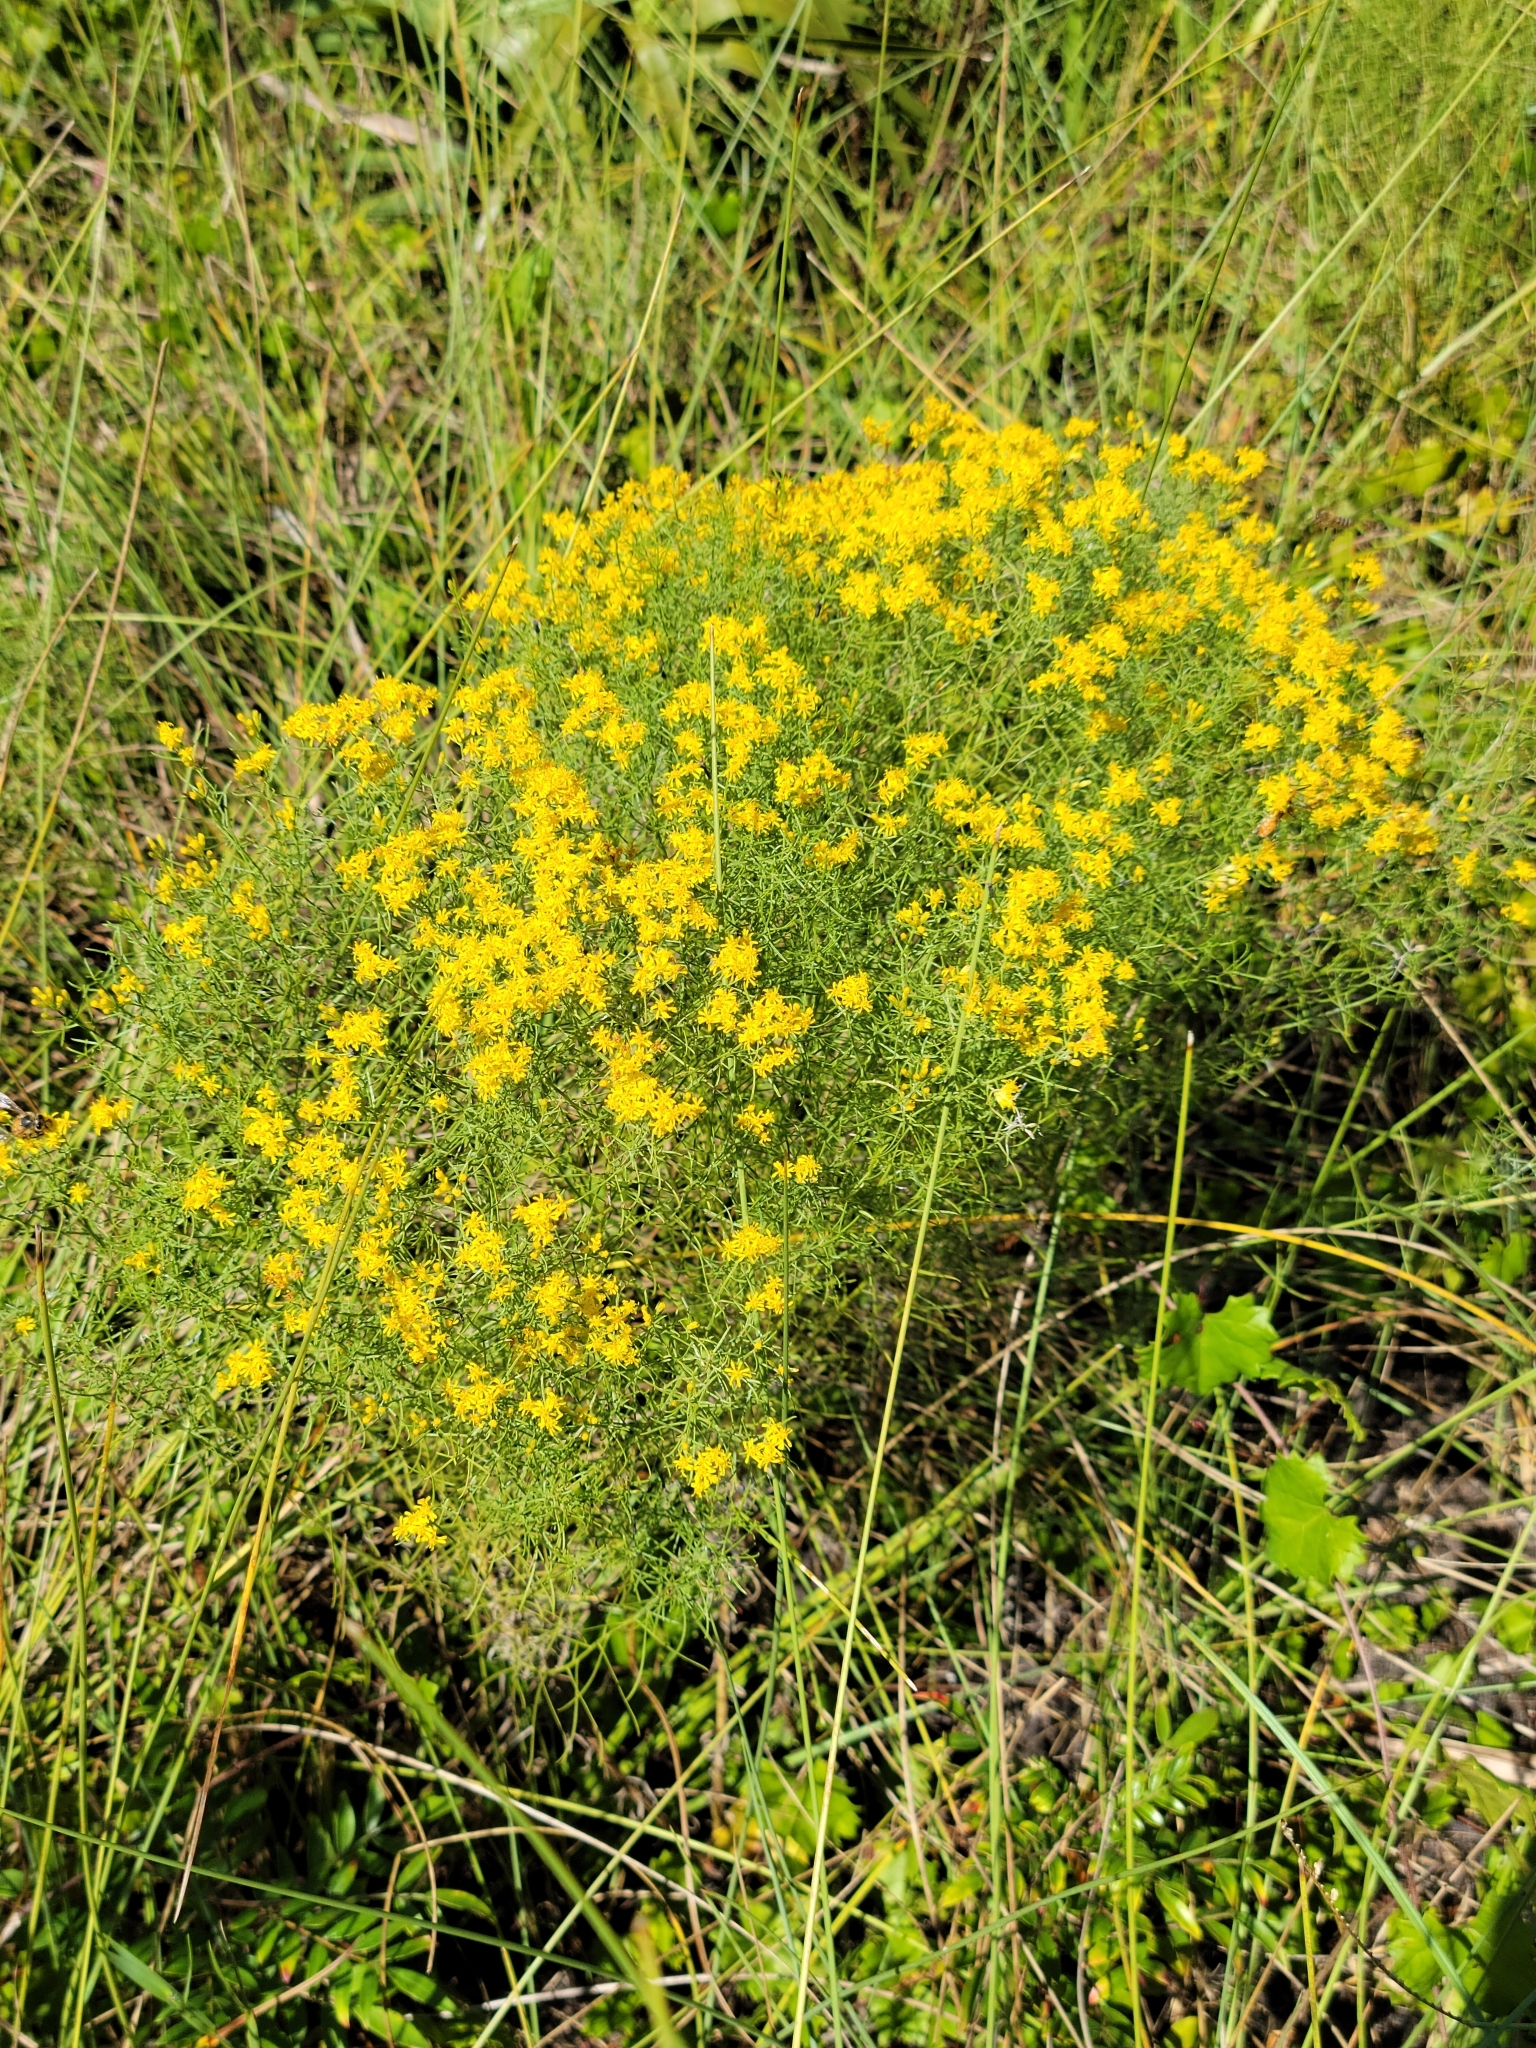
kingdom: Plantae
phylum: Tracheophyta
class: Magnoliopsida
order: Asterales
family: Asteraceae
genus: Euthamia
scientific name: Euthamia caroliniana
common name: Coastal plain goldentop
